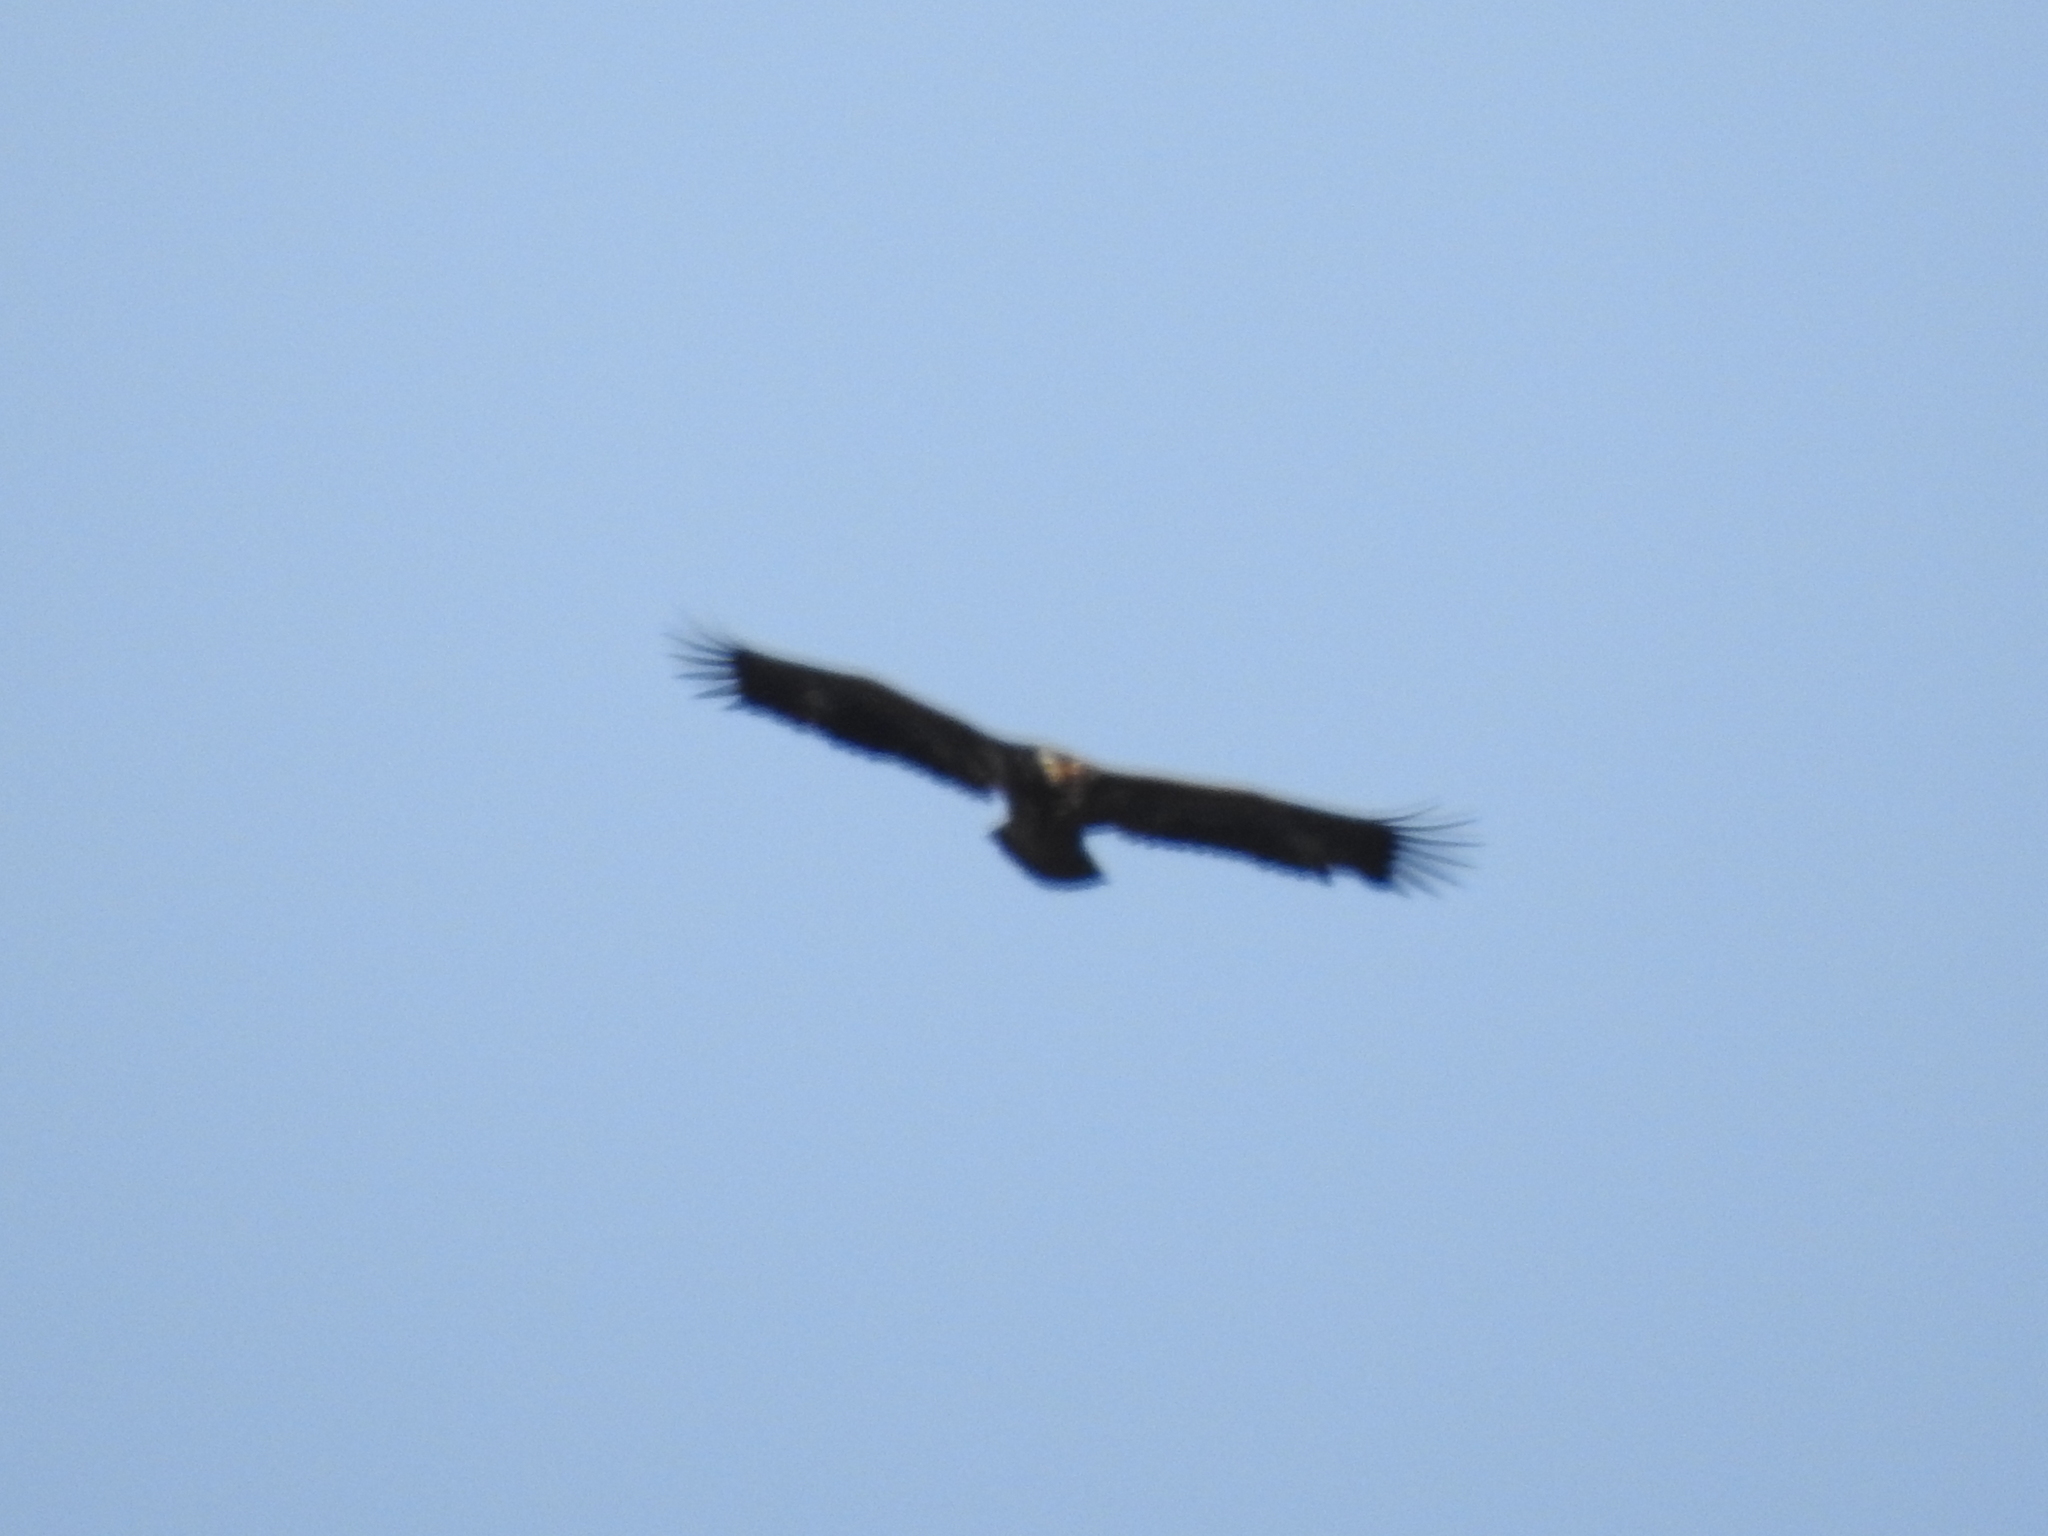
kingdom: Animalia
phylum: Chordata
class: Aves
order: Accipitriformes
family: Accipitridae
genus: Haliaeetus
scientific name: Haliaeetus albicilla
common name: White-tailed eagle
